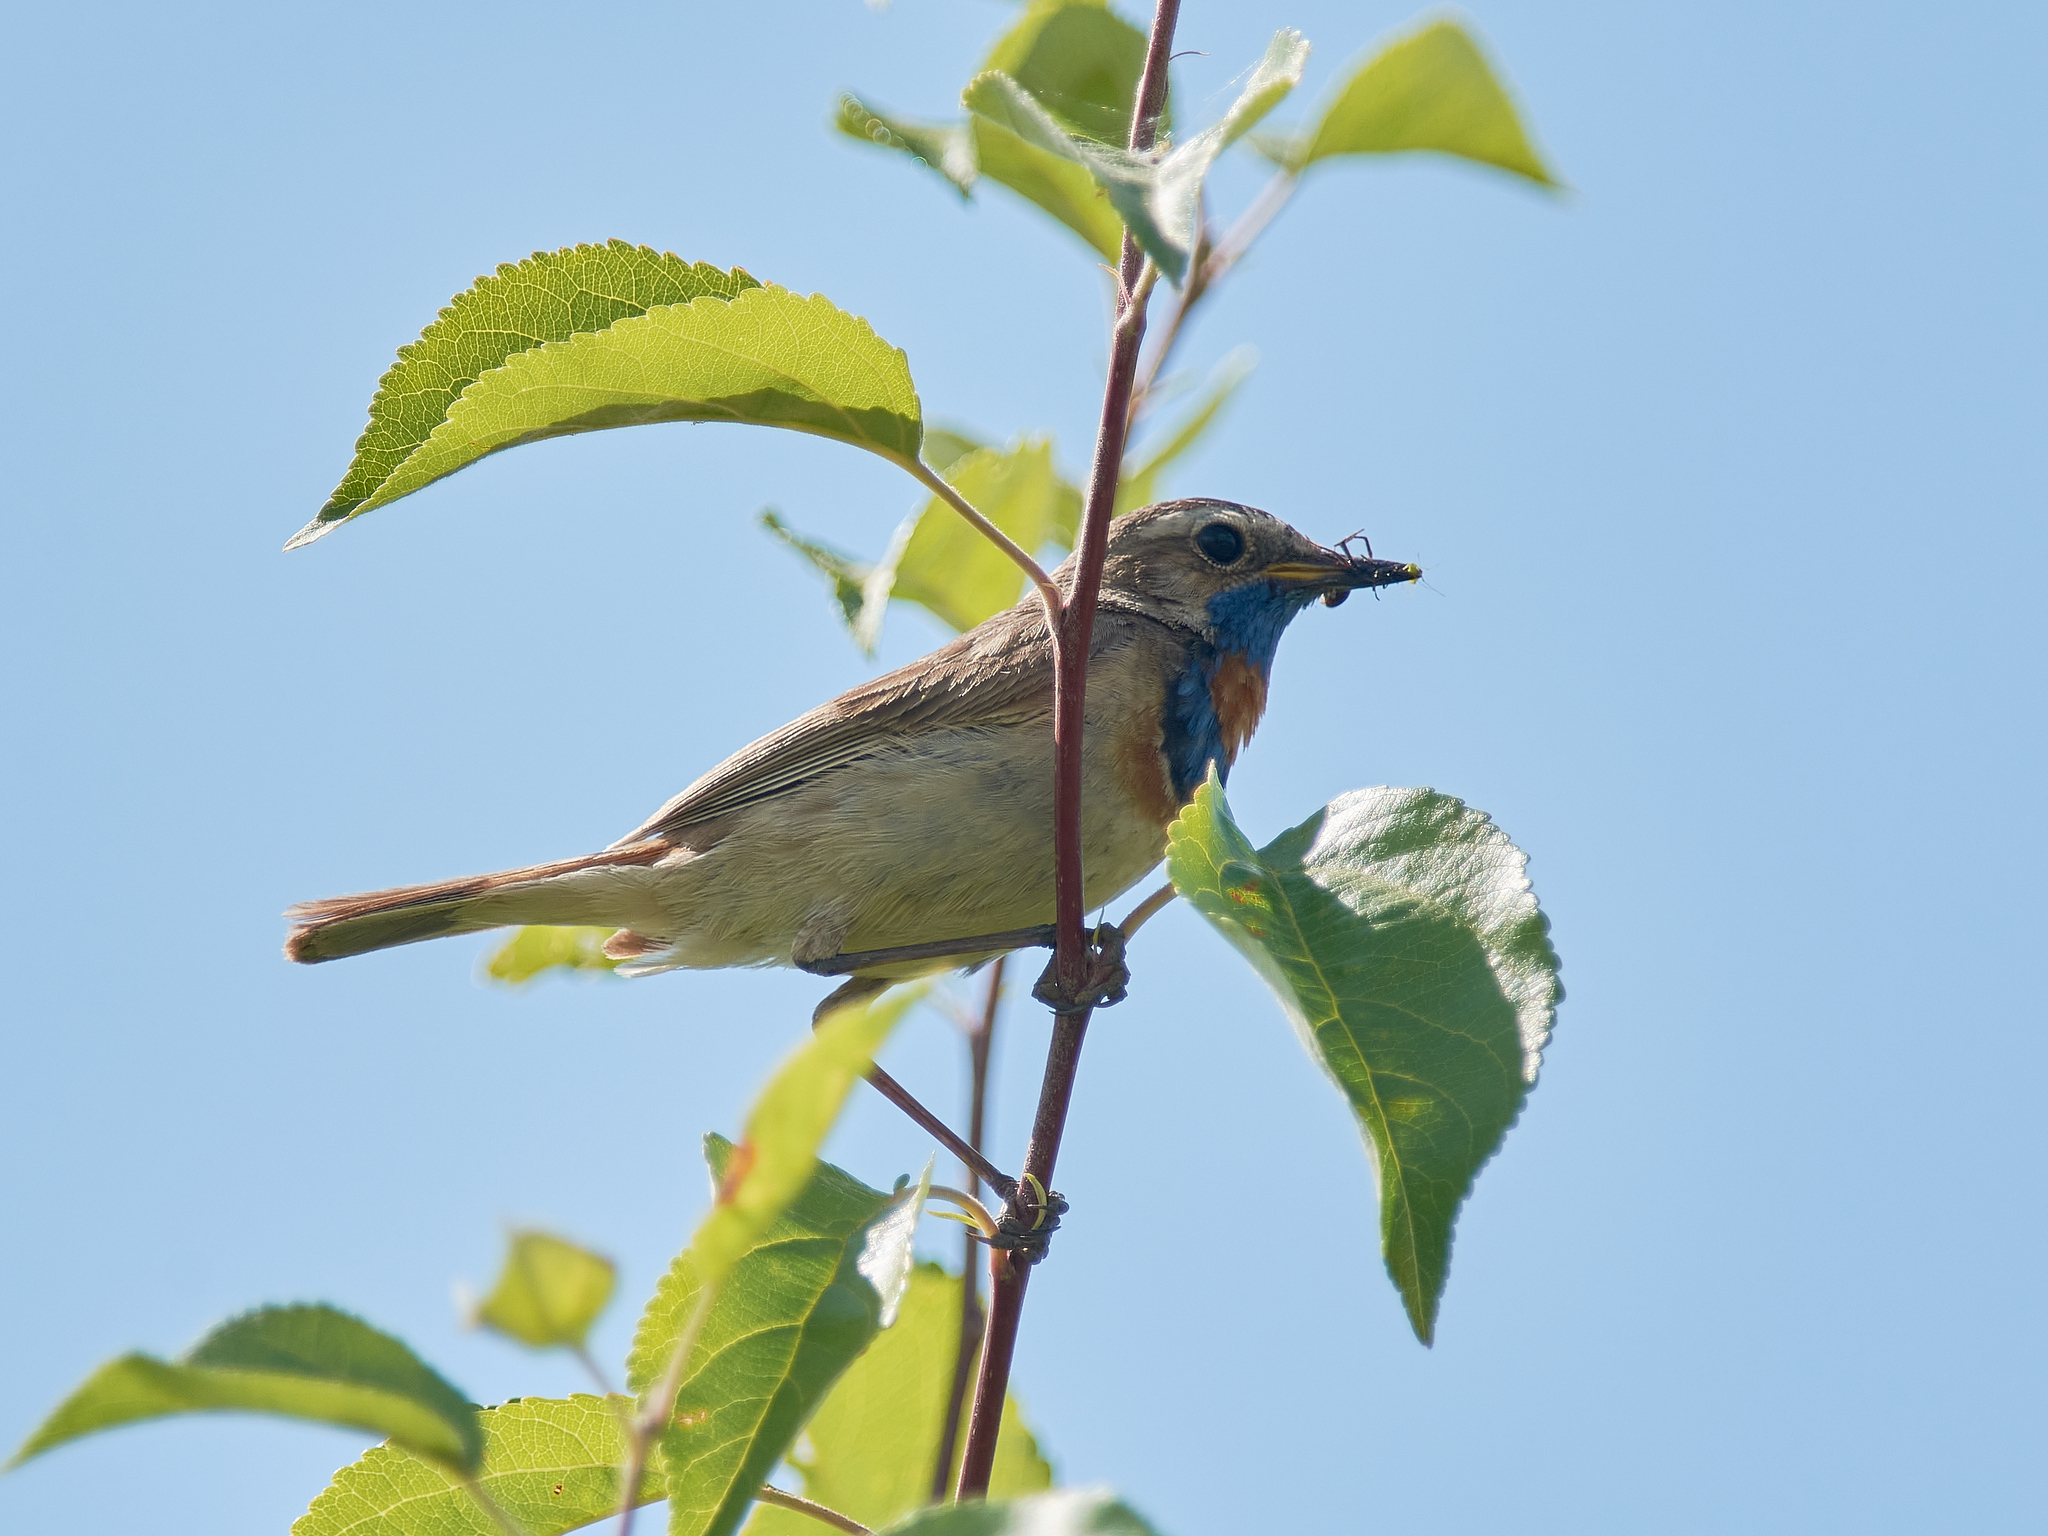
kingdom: Animalia
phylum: Chordata
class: Aves
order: Passeriformes
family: Muscicapidae
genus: Luscinia
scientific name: Luscinia svecica
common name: Bluethroat
